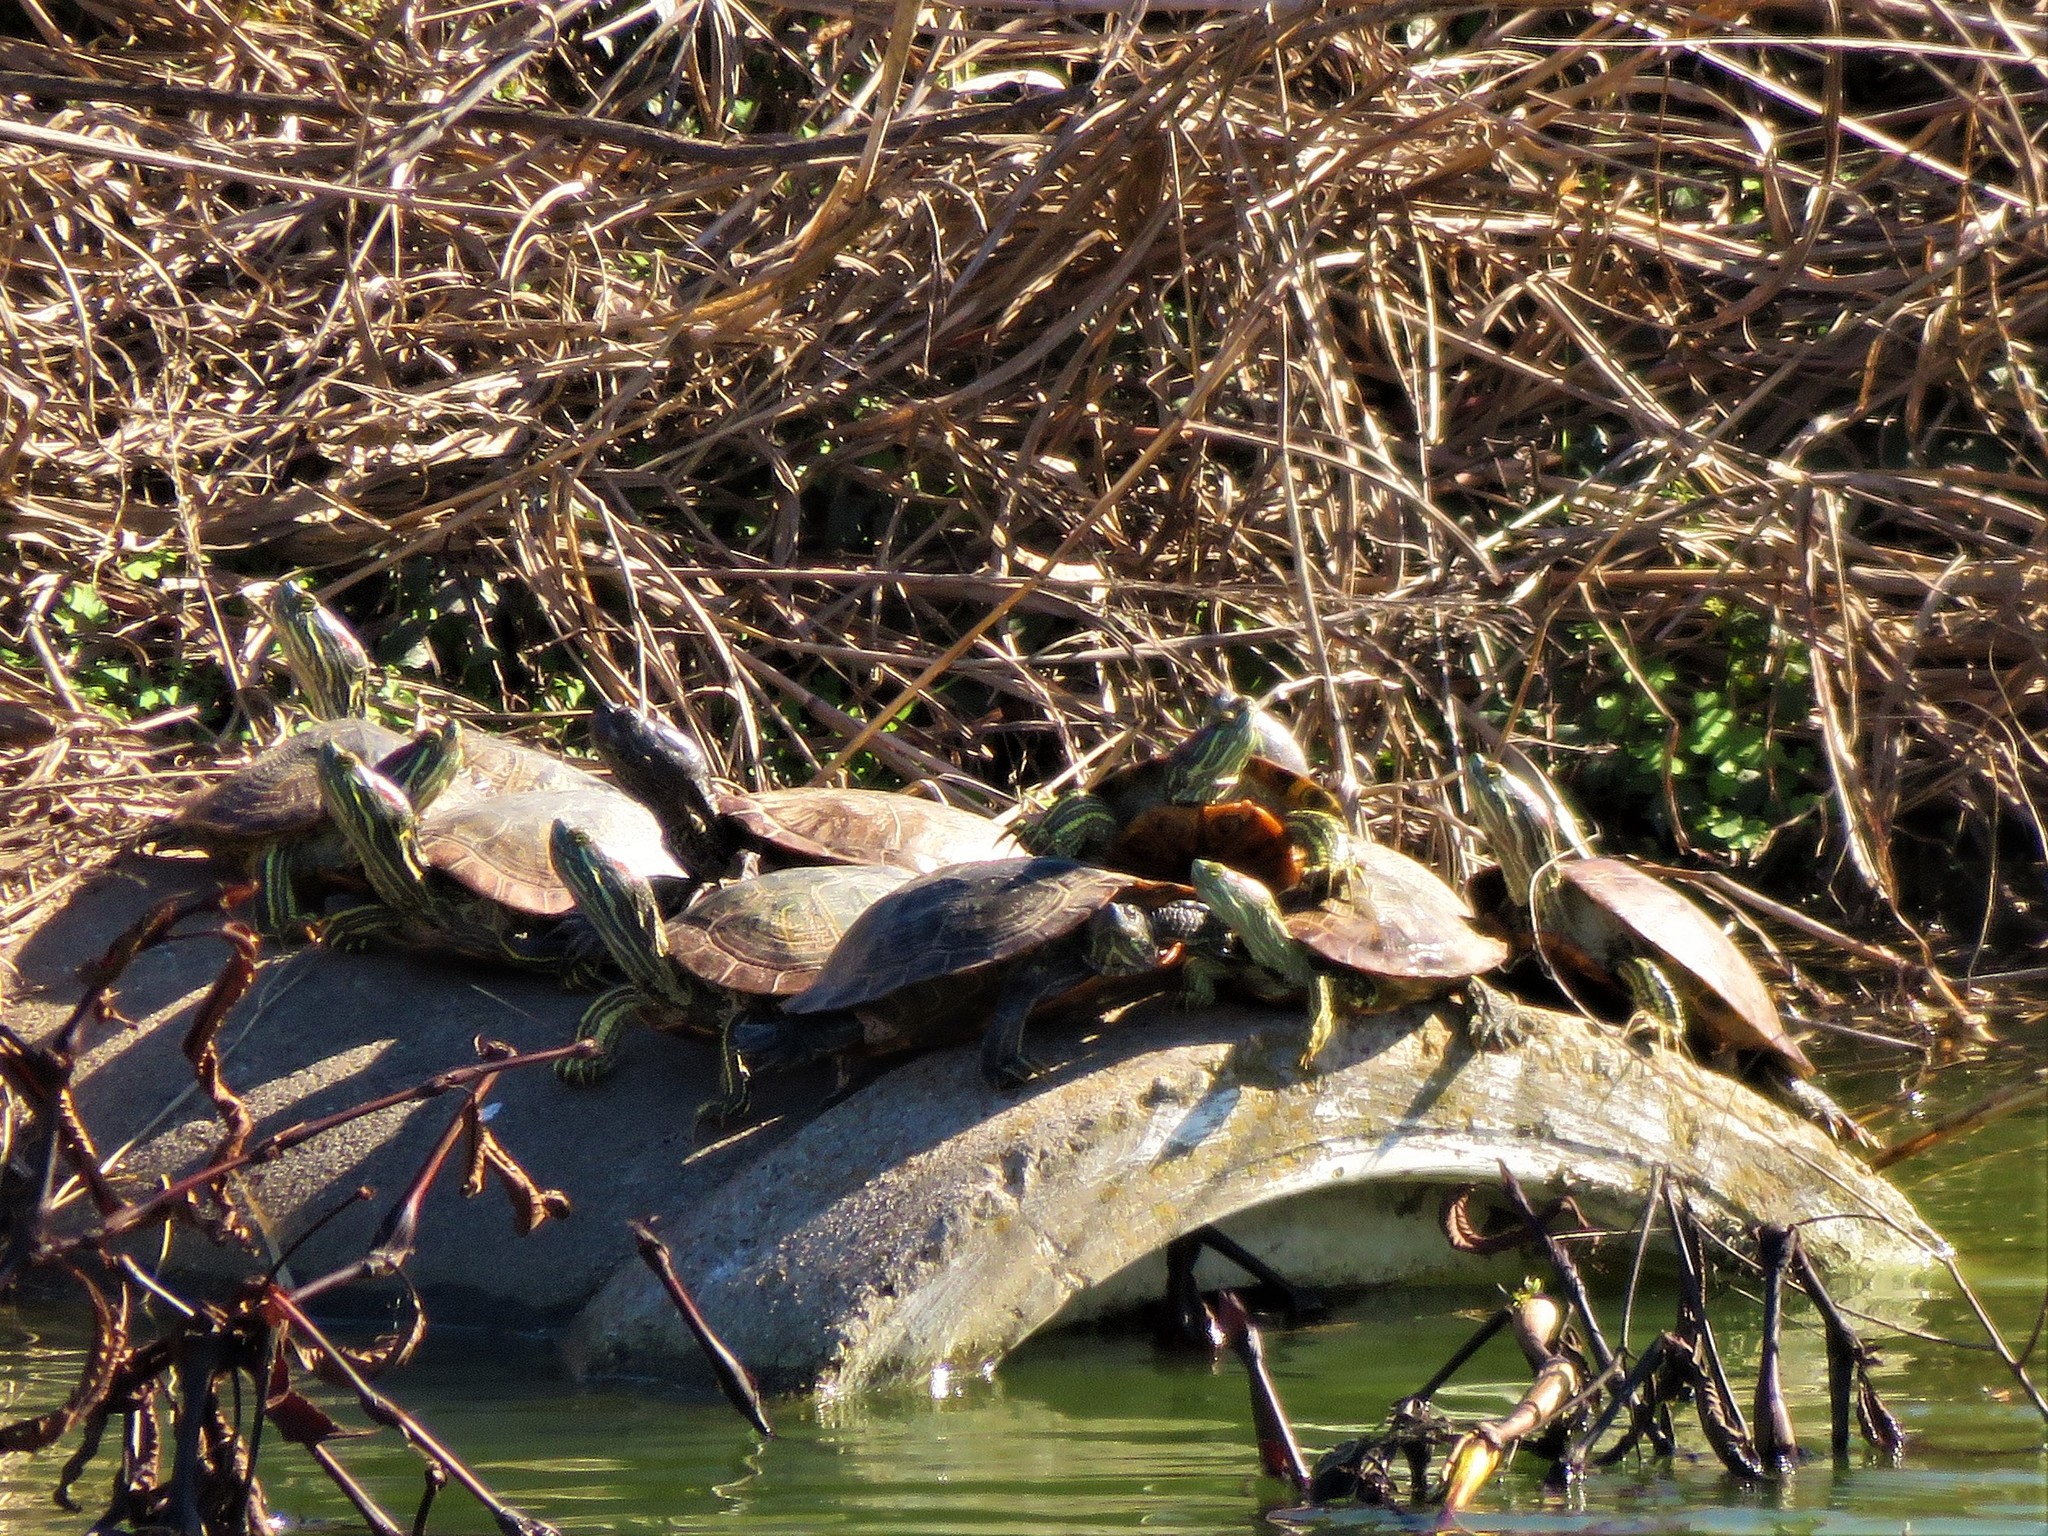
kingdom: Animalia
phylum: Chordata
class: Testudines
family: Emydidae
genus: Trachemys
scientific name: Trachemys scripta
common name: Slider
